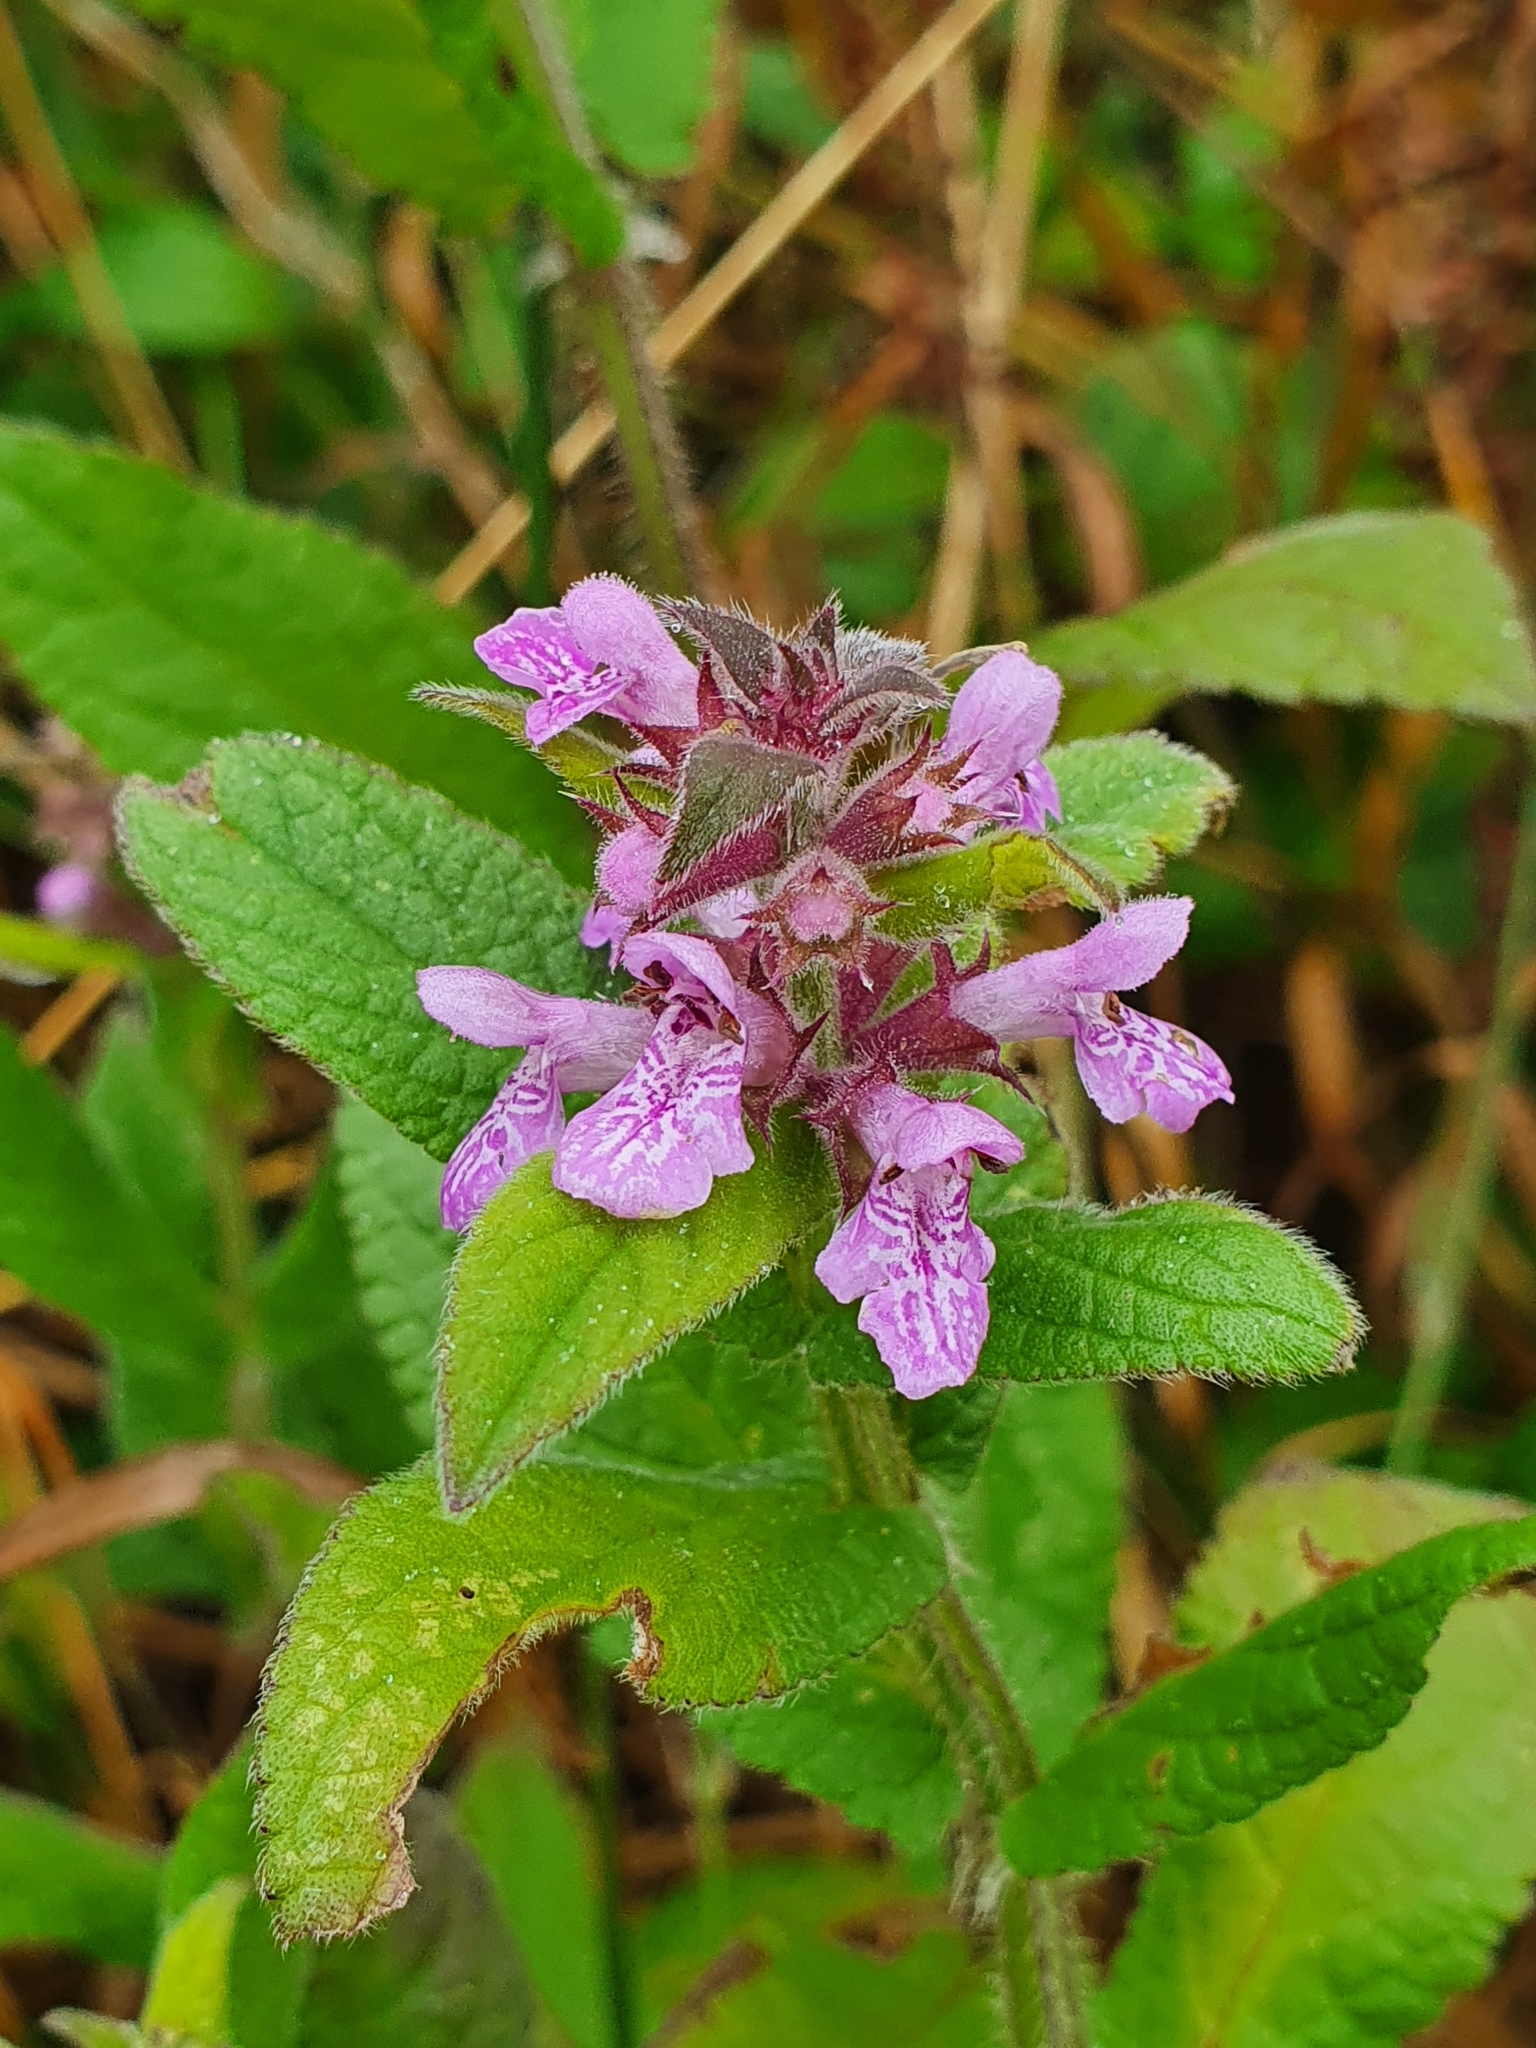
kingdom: Plantae
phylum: Tracheophyta
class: Magnoliopsida
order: Lamiales
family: Lamiaceae
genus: Stachys
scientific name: Stachys palustris
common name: Marsh woundwort
